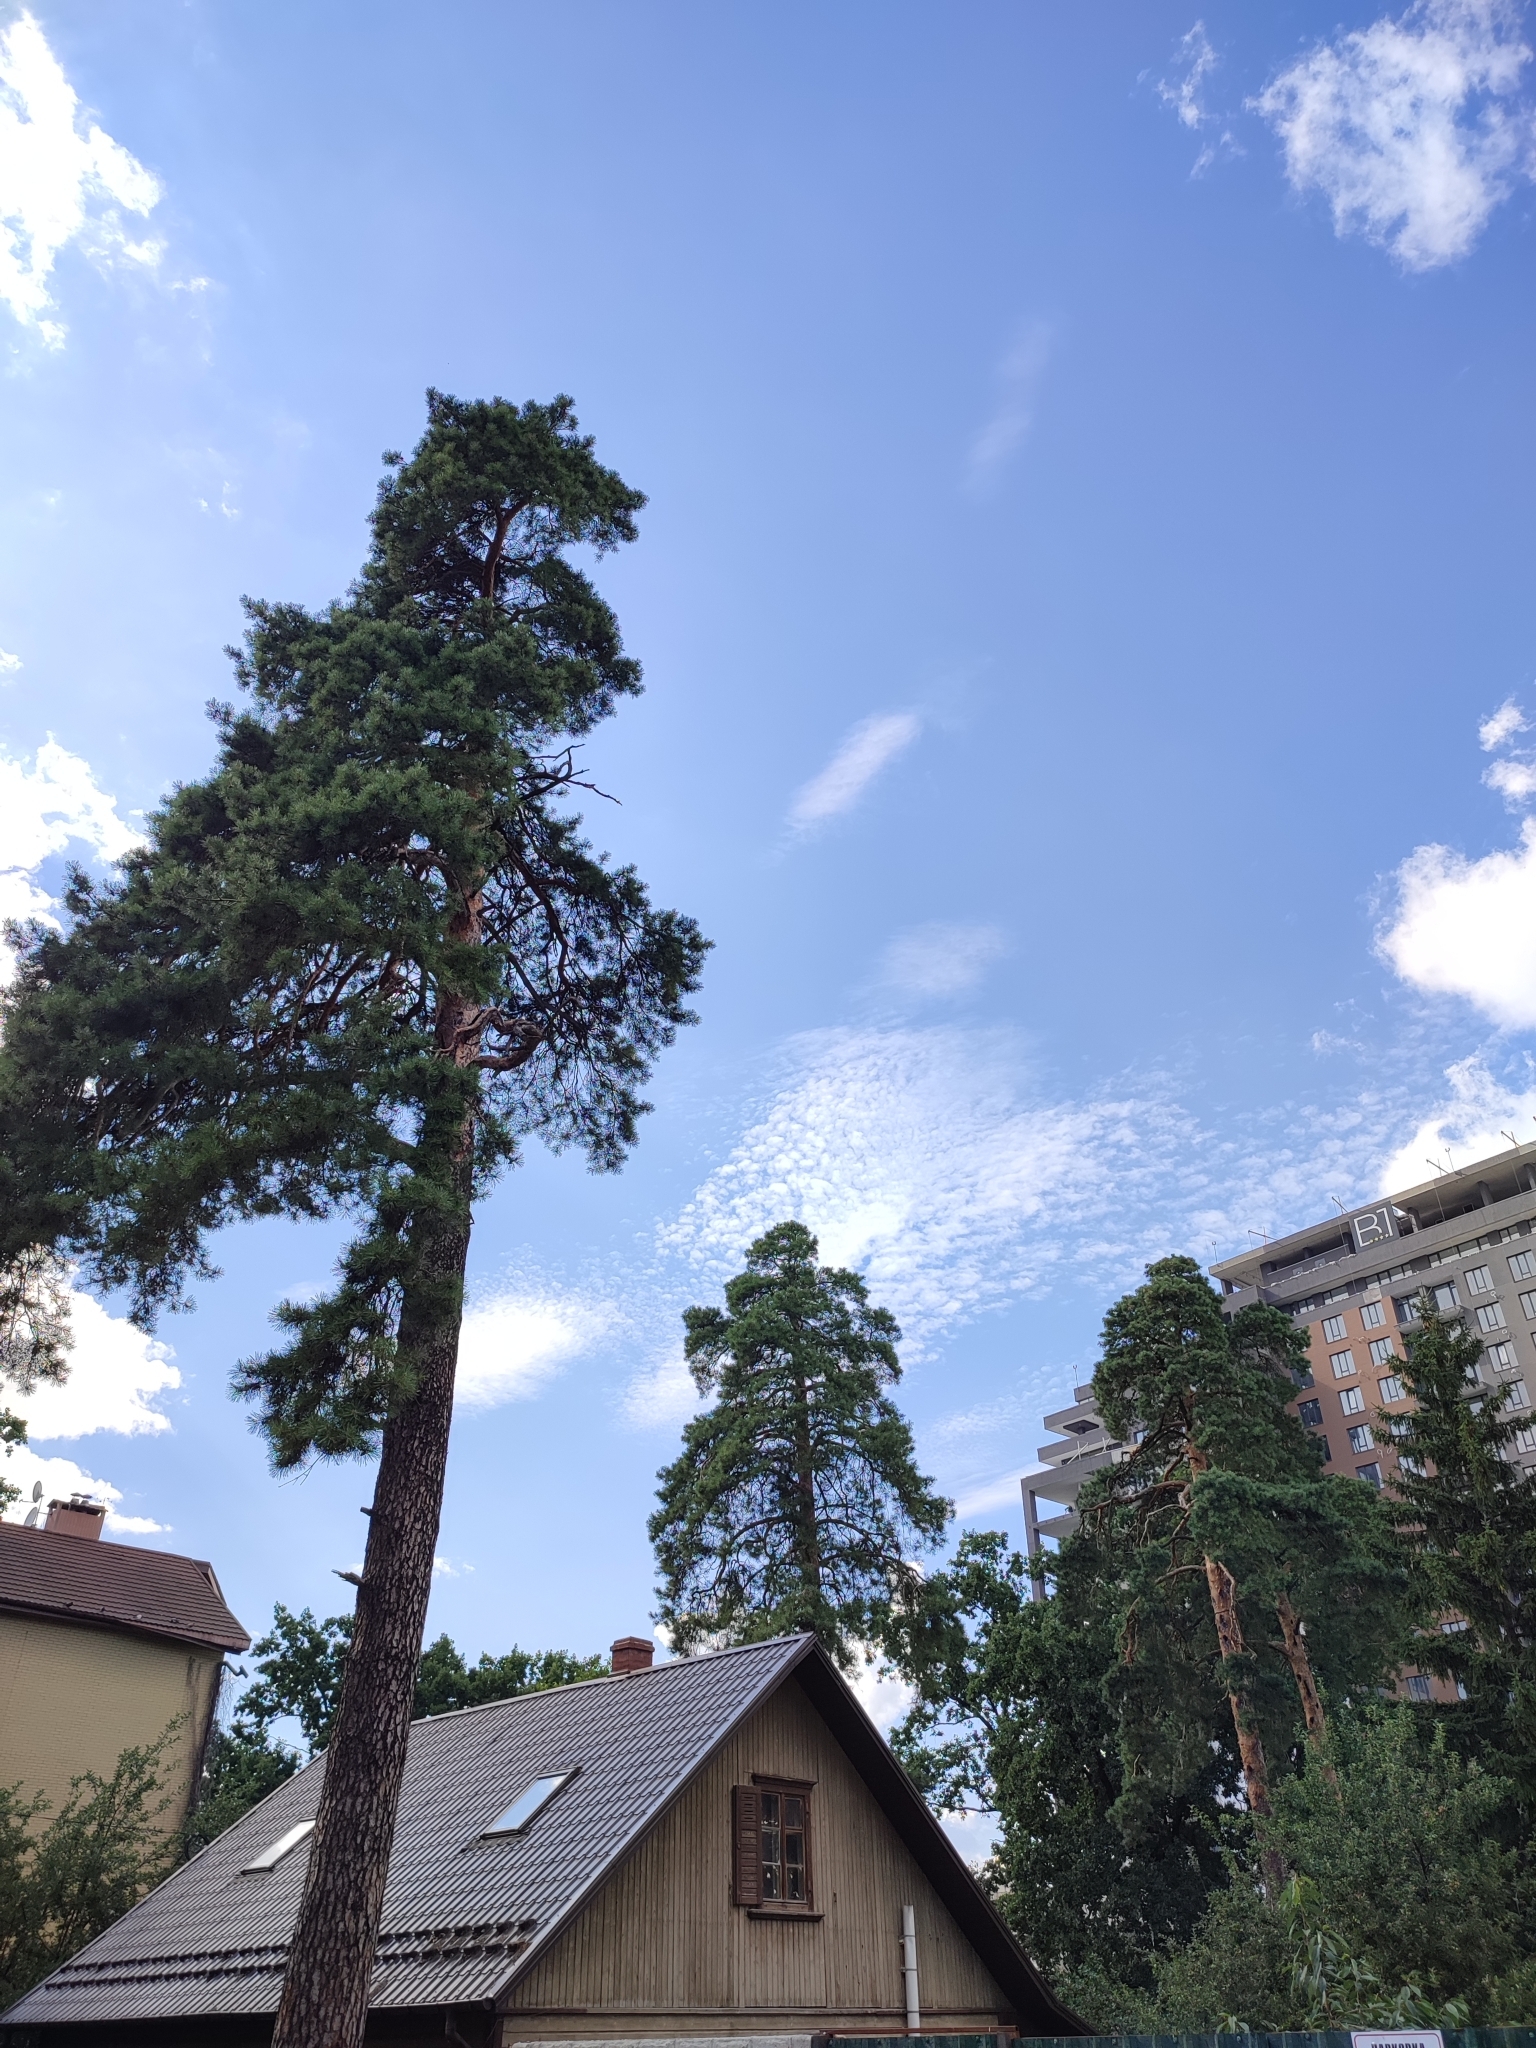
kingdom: Plantae
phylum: Tracheophyta
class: Pinopsida
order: Pinales
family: Pinaceae
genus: Pinus
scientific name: Pinus sylvestris
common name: Scots pine
